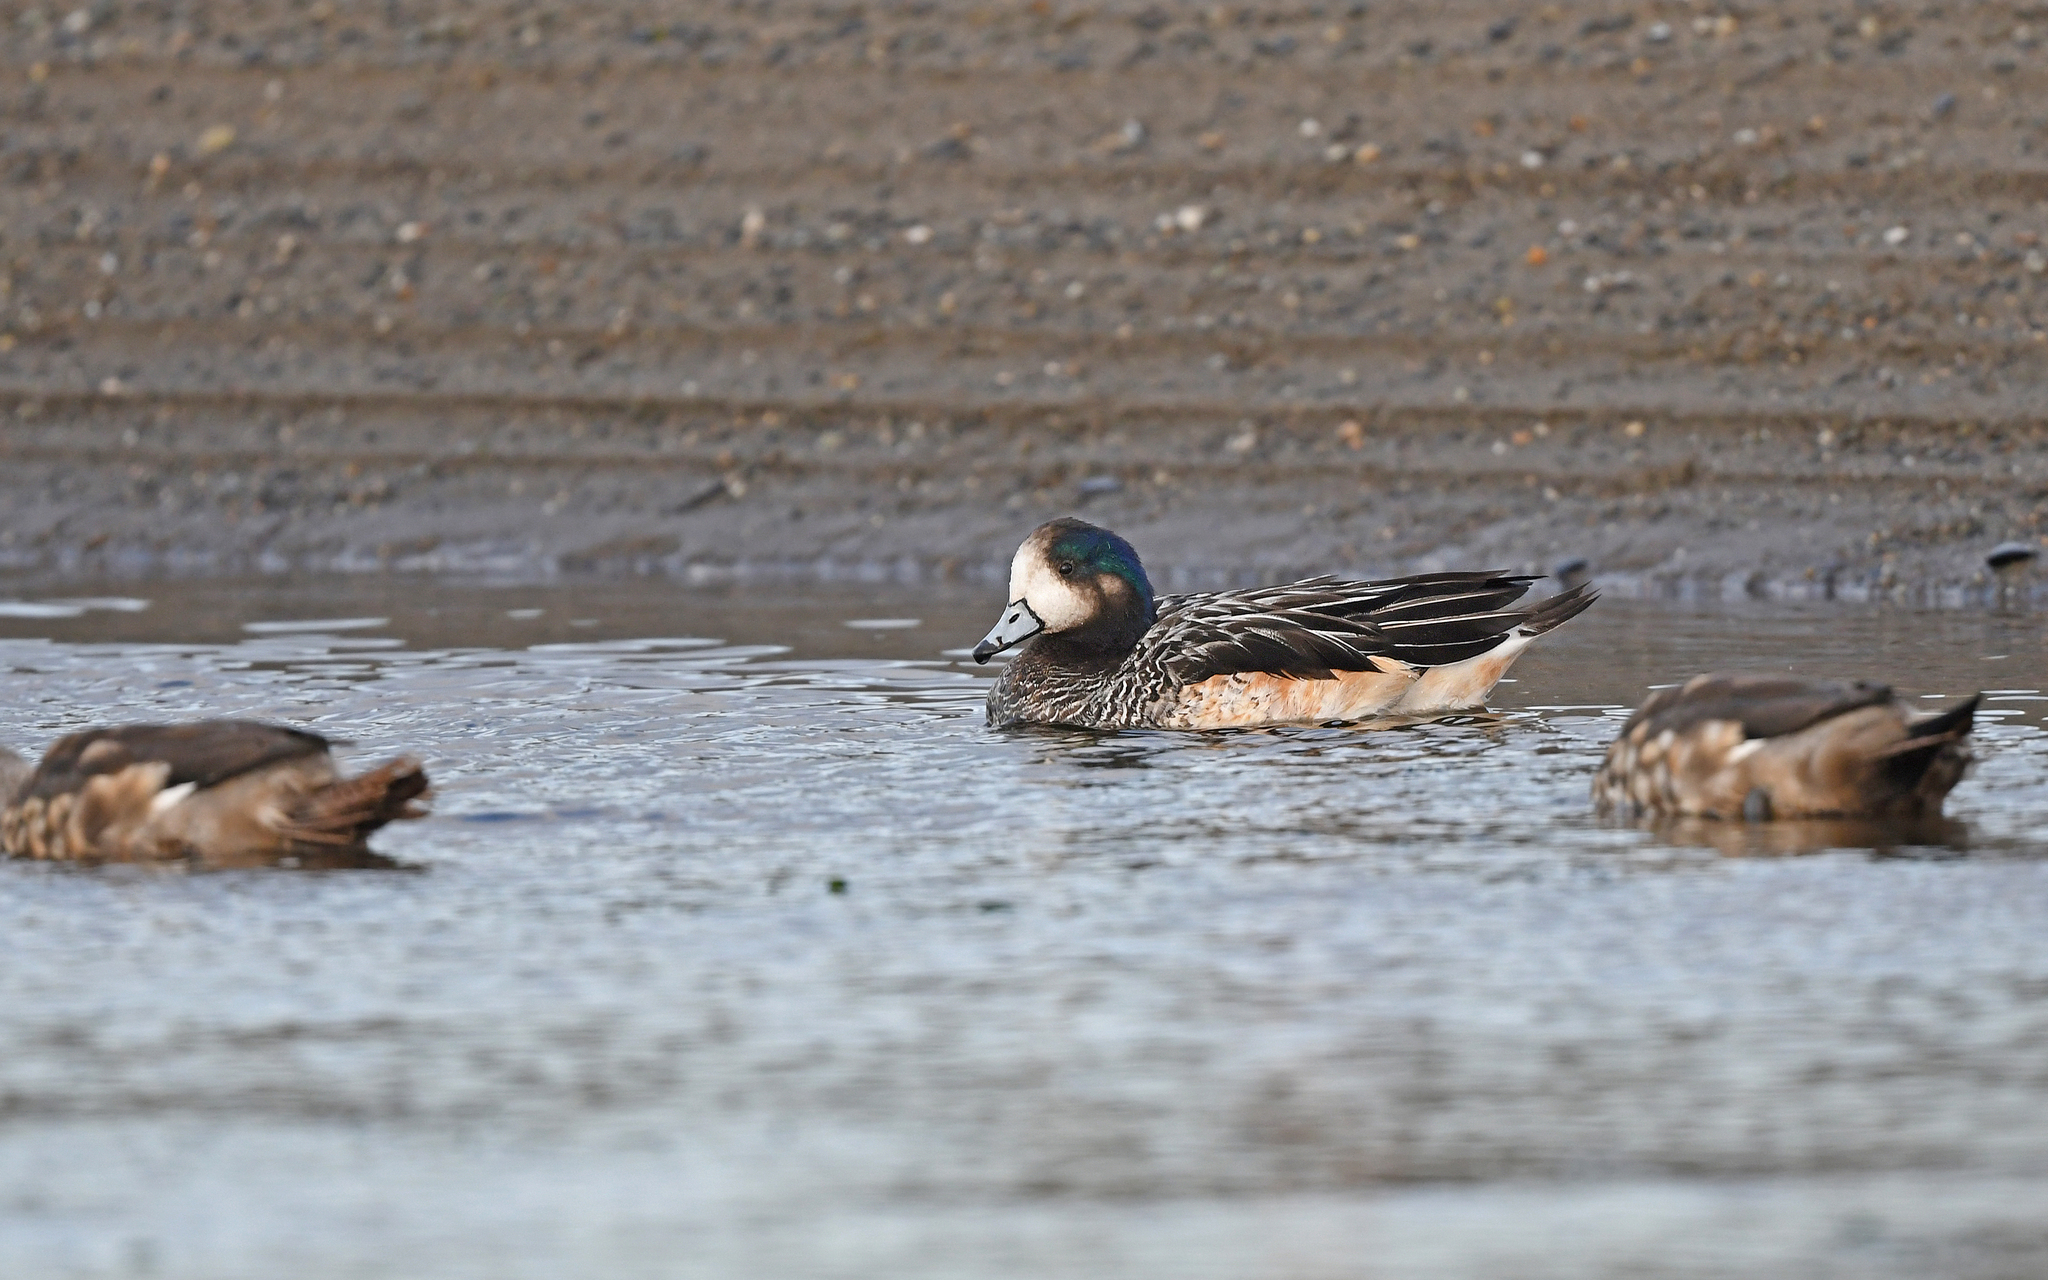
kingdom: Animalia
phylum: Chordata
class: Aves
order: Anseriformes
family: Anatidae
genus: Mareca
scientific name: Mareca sibilatrix
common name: Chiloe wigeon
